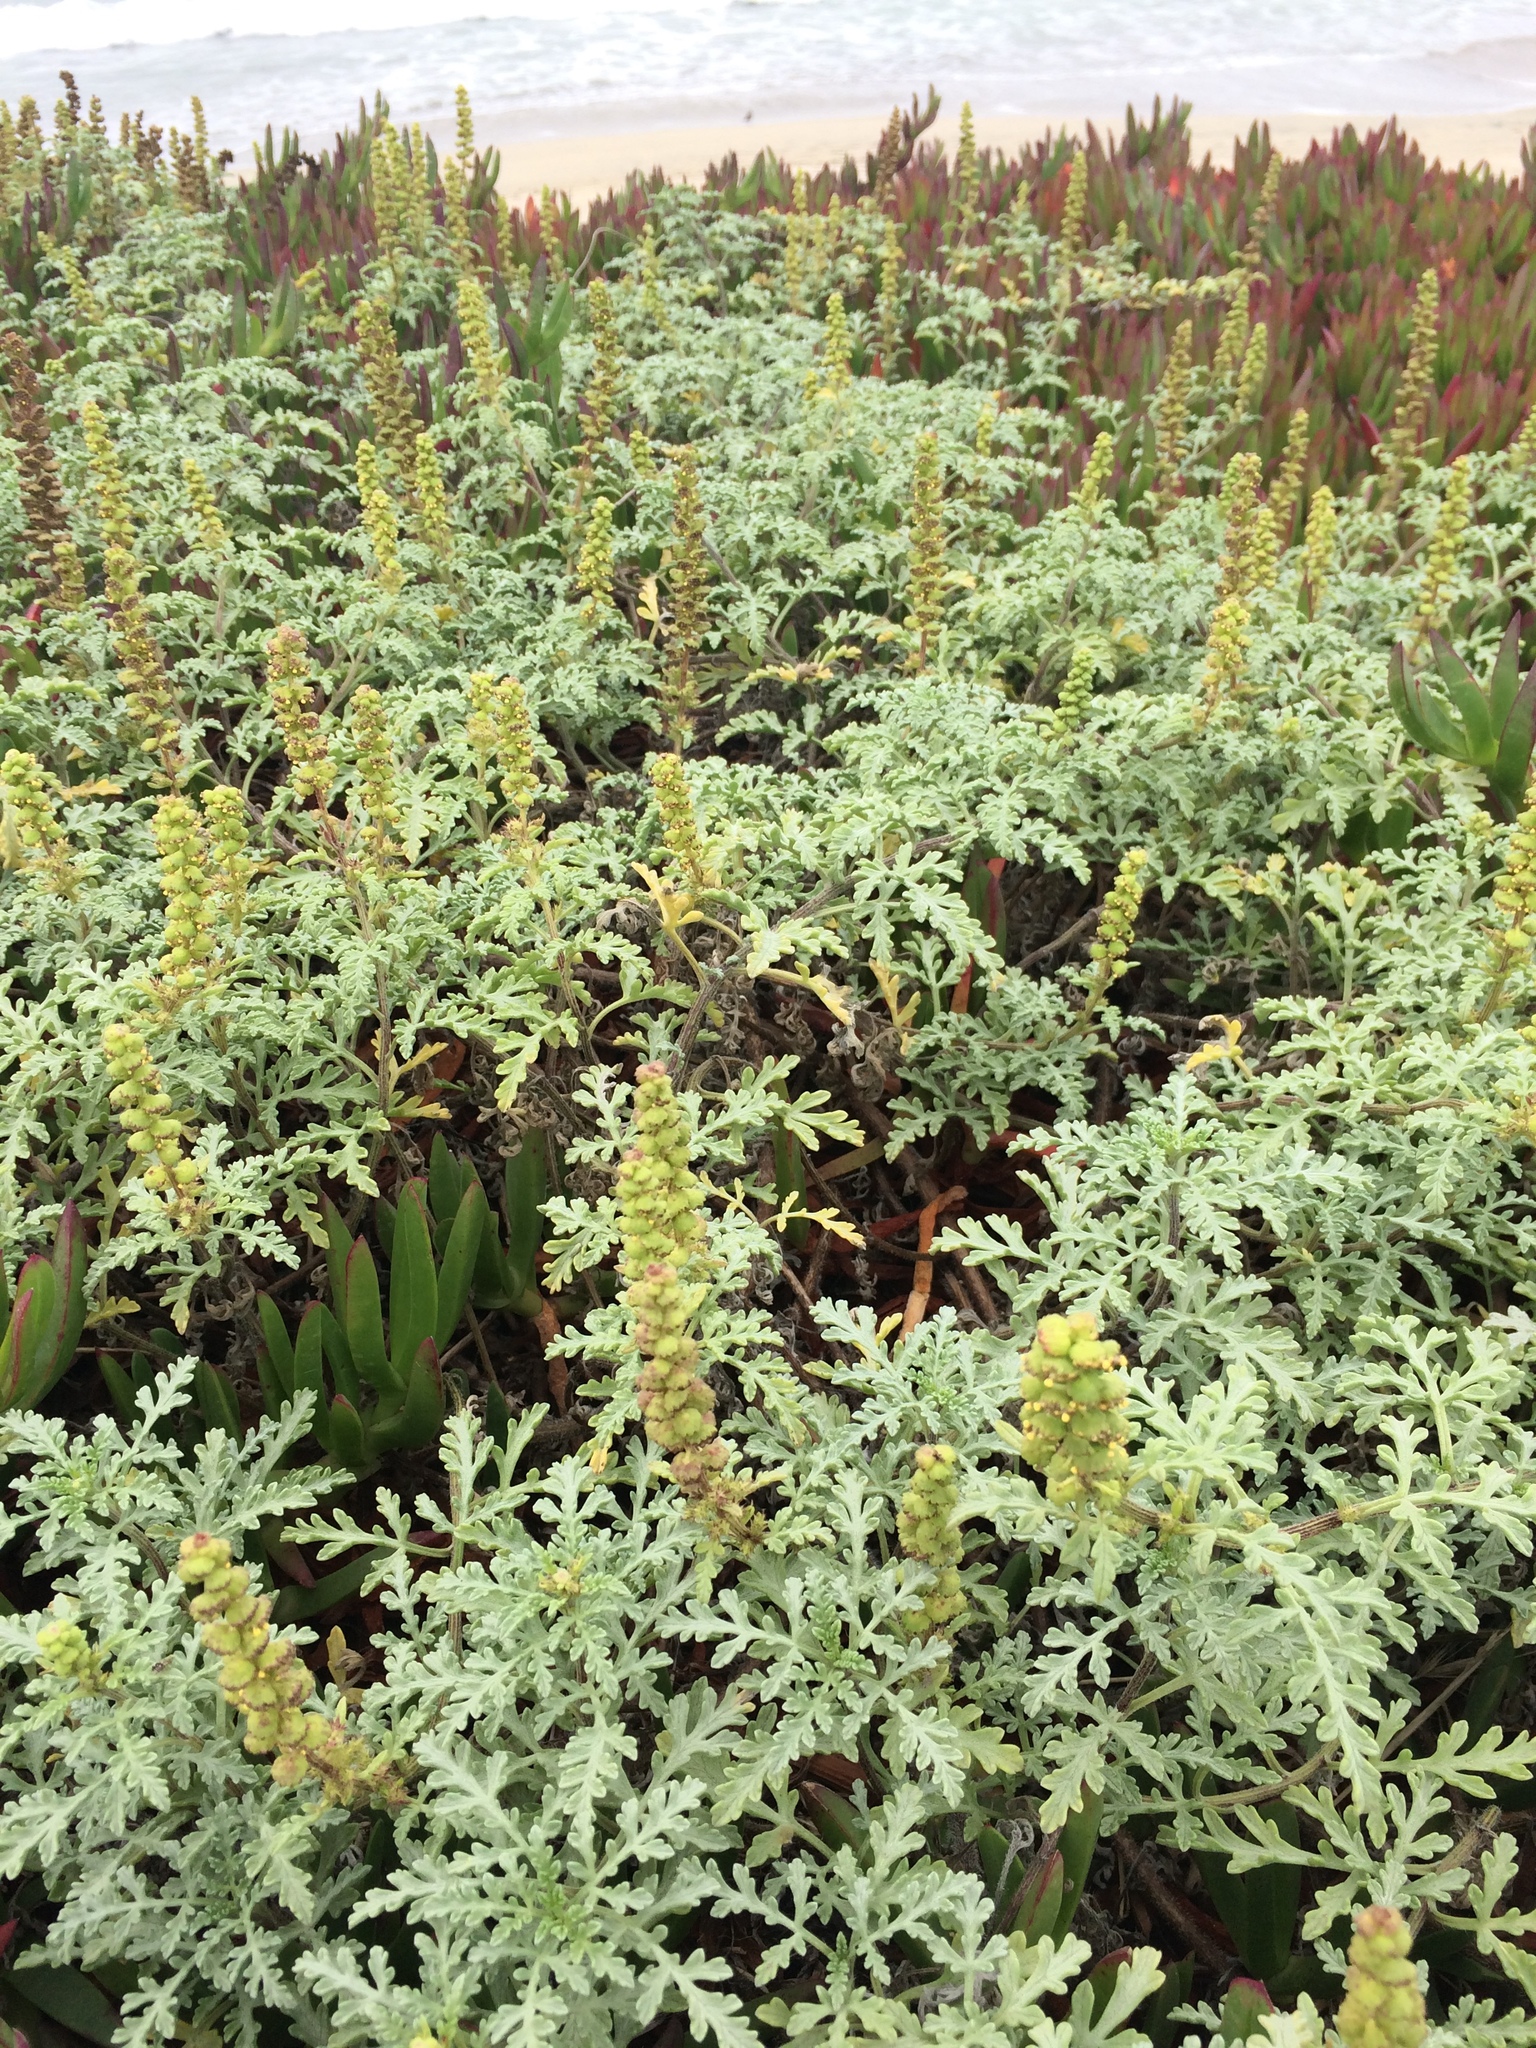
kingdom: Plantae
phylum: Tracheophyta
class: Magnoliopsida
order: Asterales
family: Asteraceae
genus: Ambrosia
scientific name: Ambrosia chamissonis
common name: Beachbur
